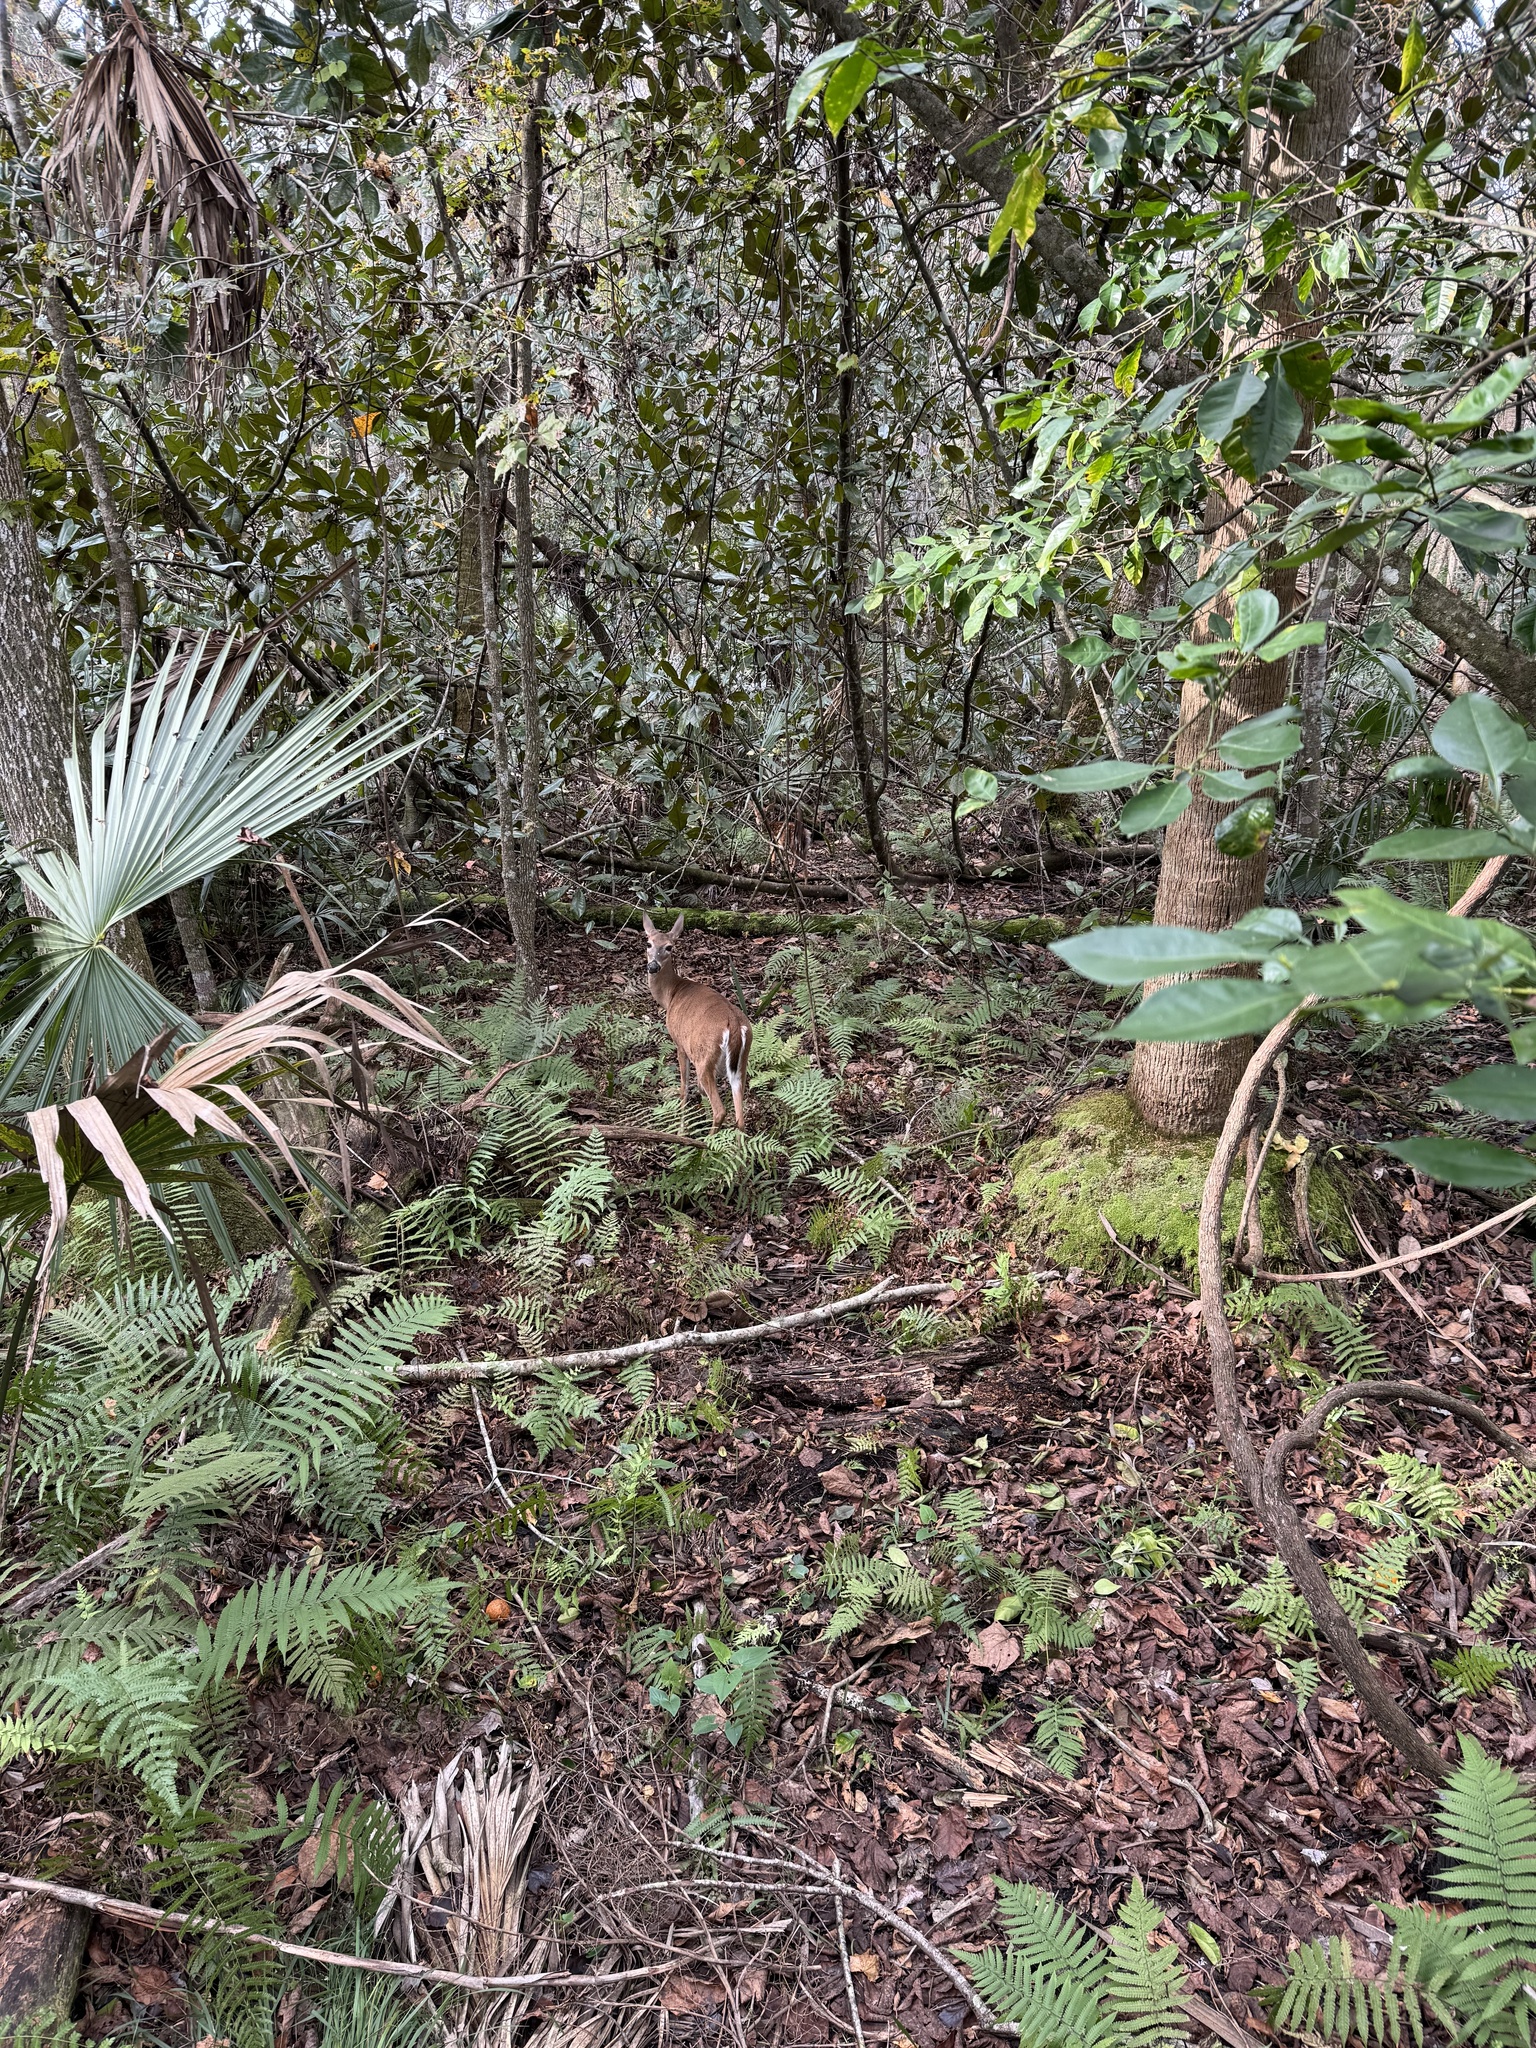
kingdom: Animalia
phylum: Chordata
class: Mammalia
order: Artiodactyla
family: Cervidae
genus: Odocoileus
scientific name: Odocoileus virginianus
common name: White-tailed deer
